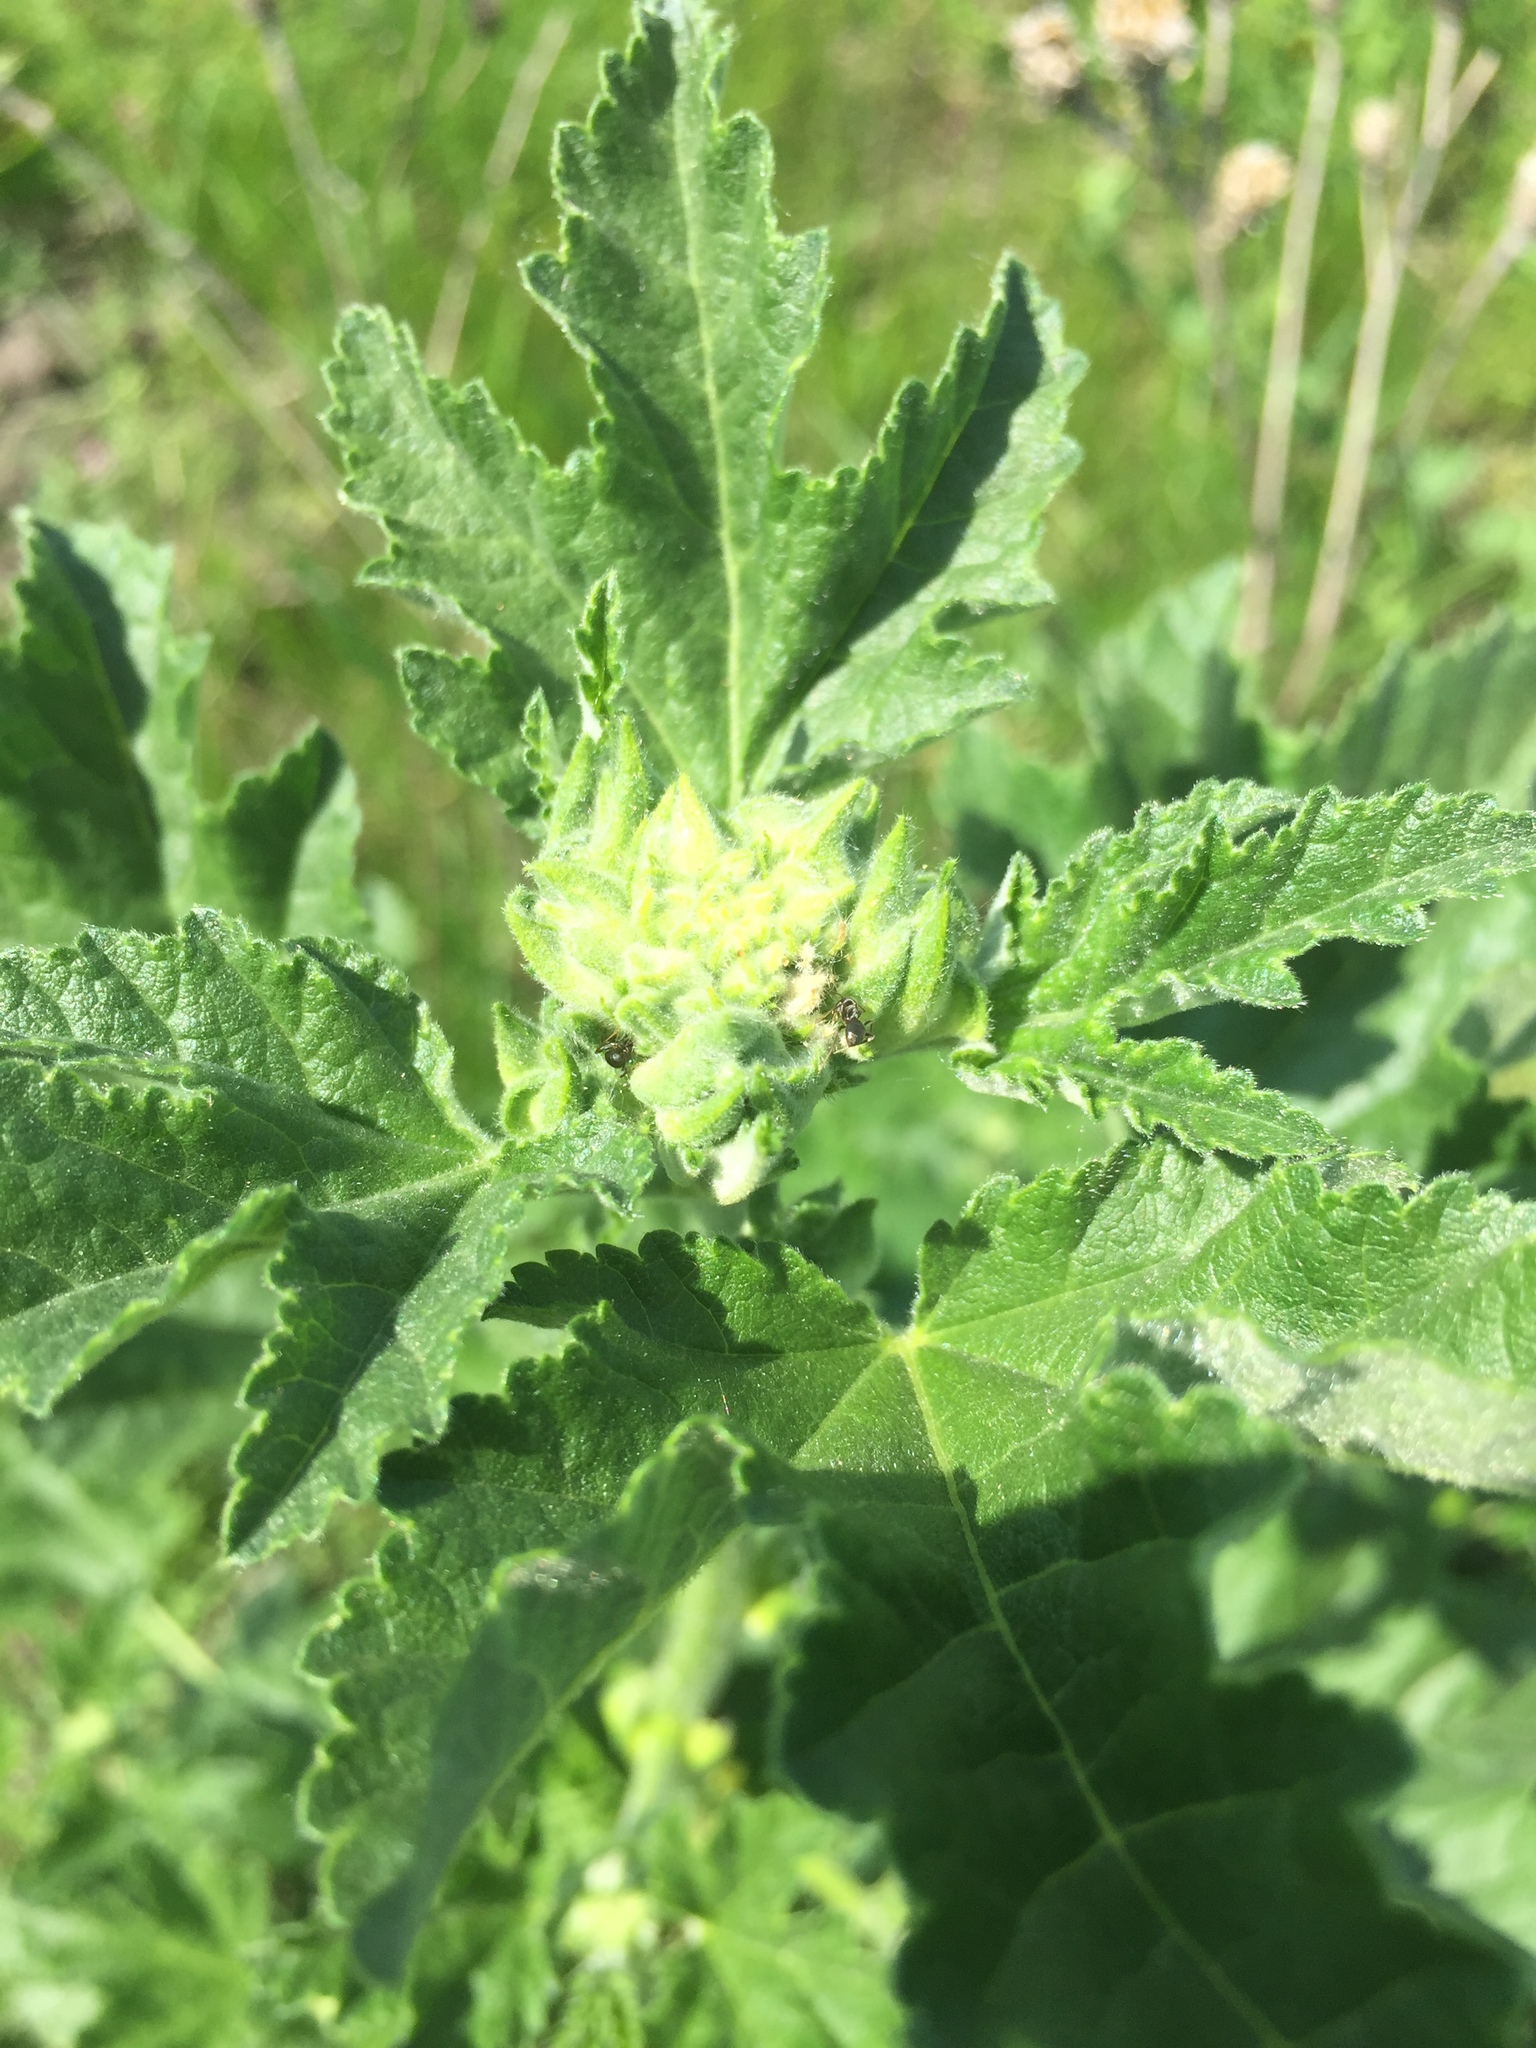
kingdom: Plantae
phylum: Tracheophyta
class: Magnoliopsida
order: Malvales
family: Malvaceae
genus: Malva
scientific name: Malva thuringiaca
